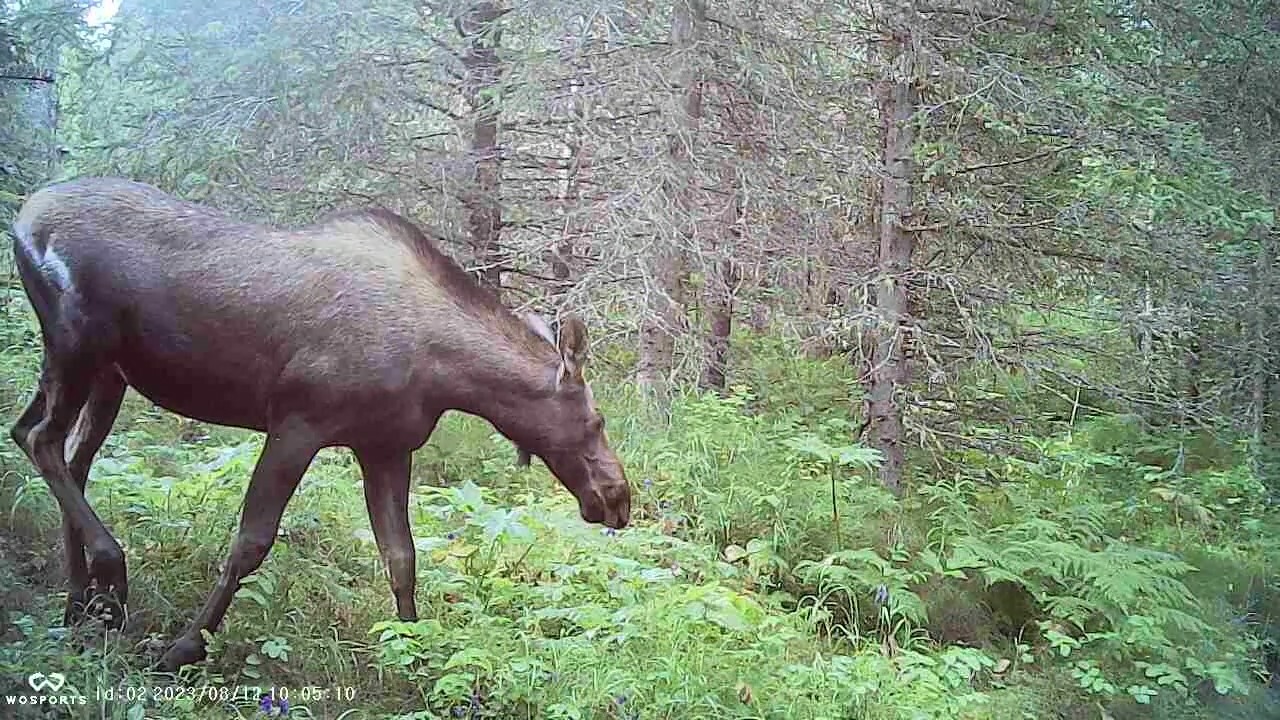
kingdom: Animalia
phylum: Chordata
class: Mammalia
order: Artiodactyla
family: Cervidae
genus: Alces
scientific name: Alces alces
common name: Moose
